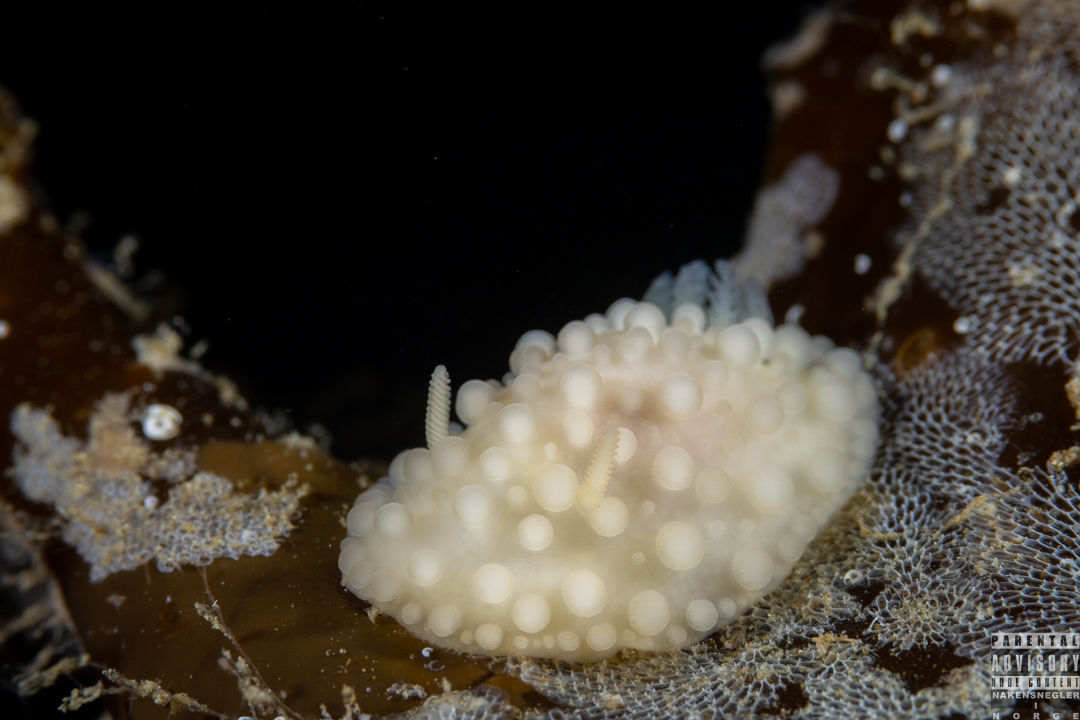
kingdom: Animalia
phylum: Mollusca
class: Gastropoda
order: Nudibranchia
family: Onchidorididae
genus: Adalaria
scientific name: Adalaria loveni
